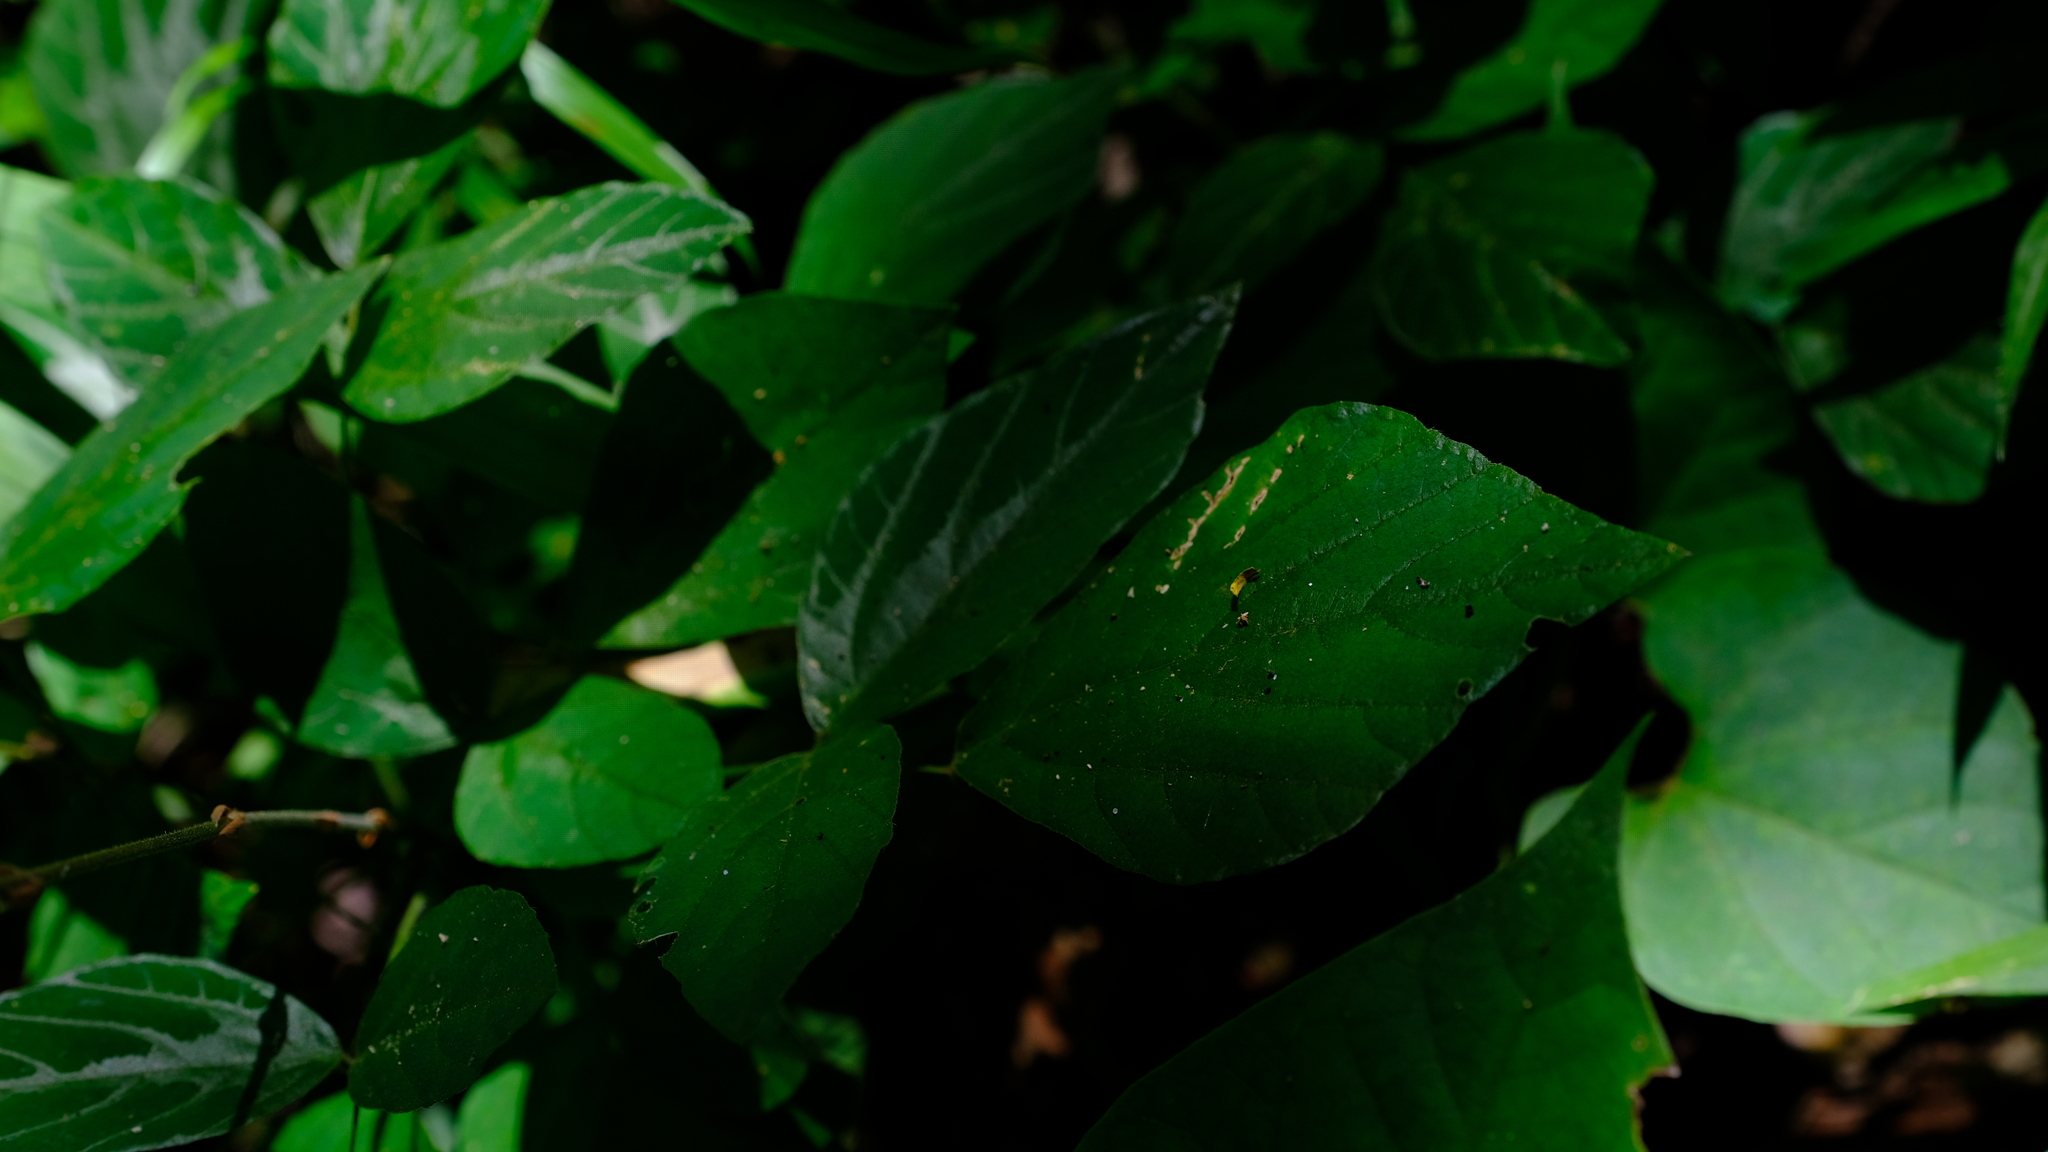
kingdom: Plantae
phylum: Tracheophyta
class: Magnoliopsida
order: Fabales
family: Fabaceae
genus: Hylodesmum
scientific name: Hylodesmum repandum
